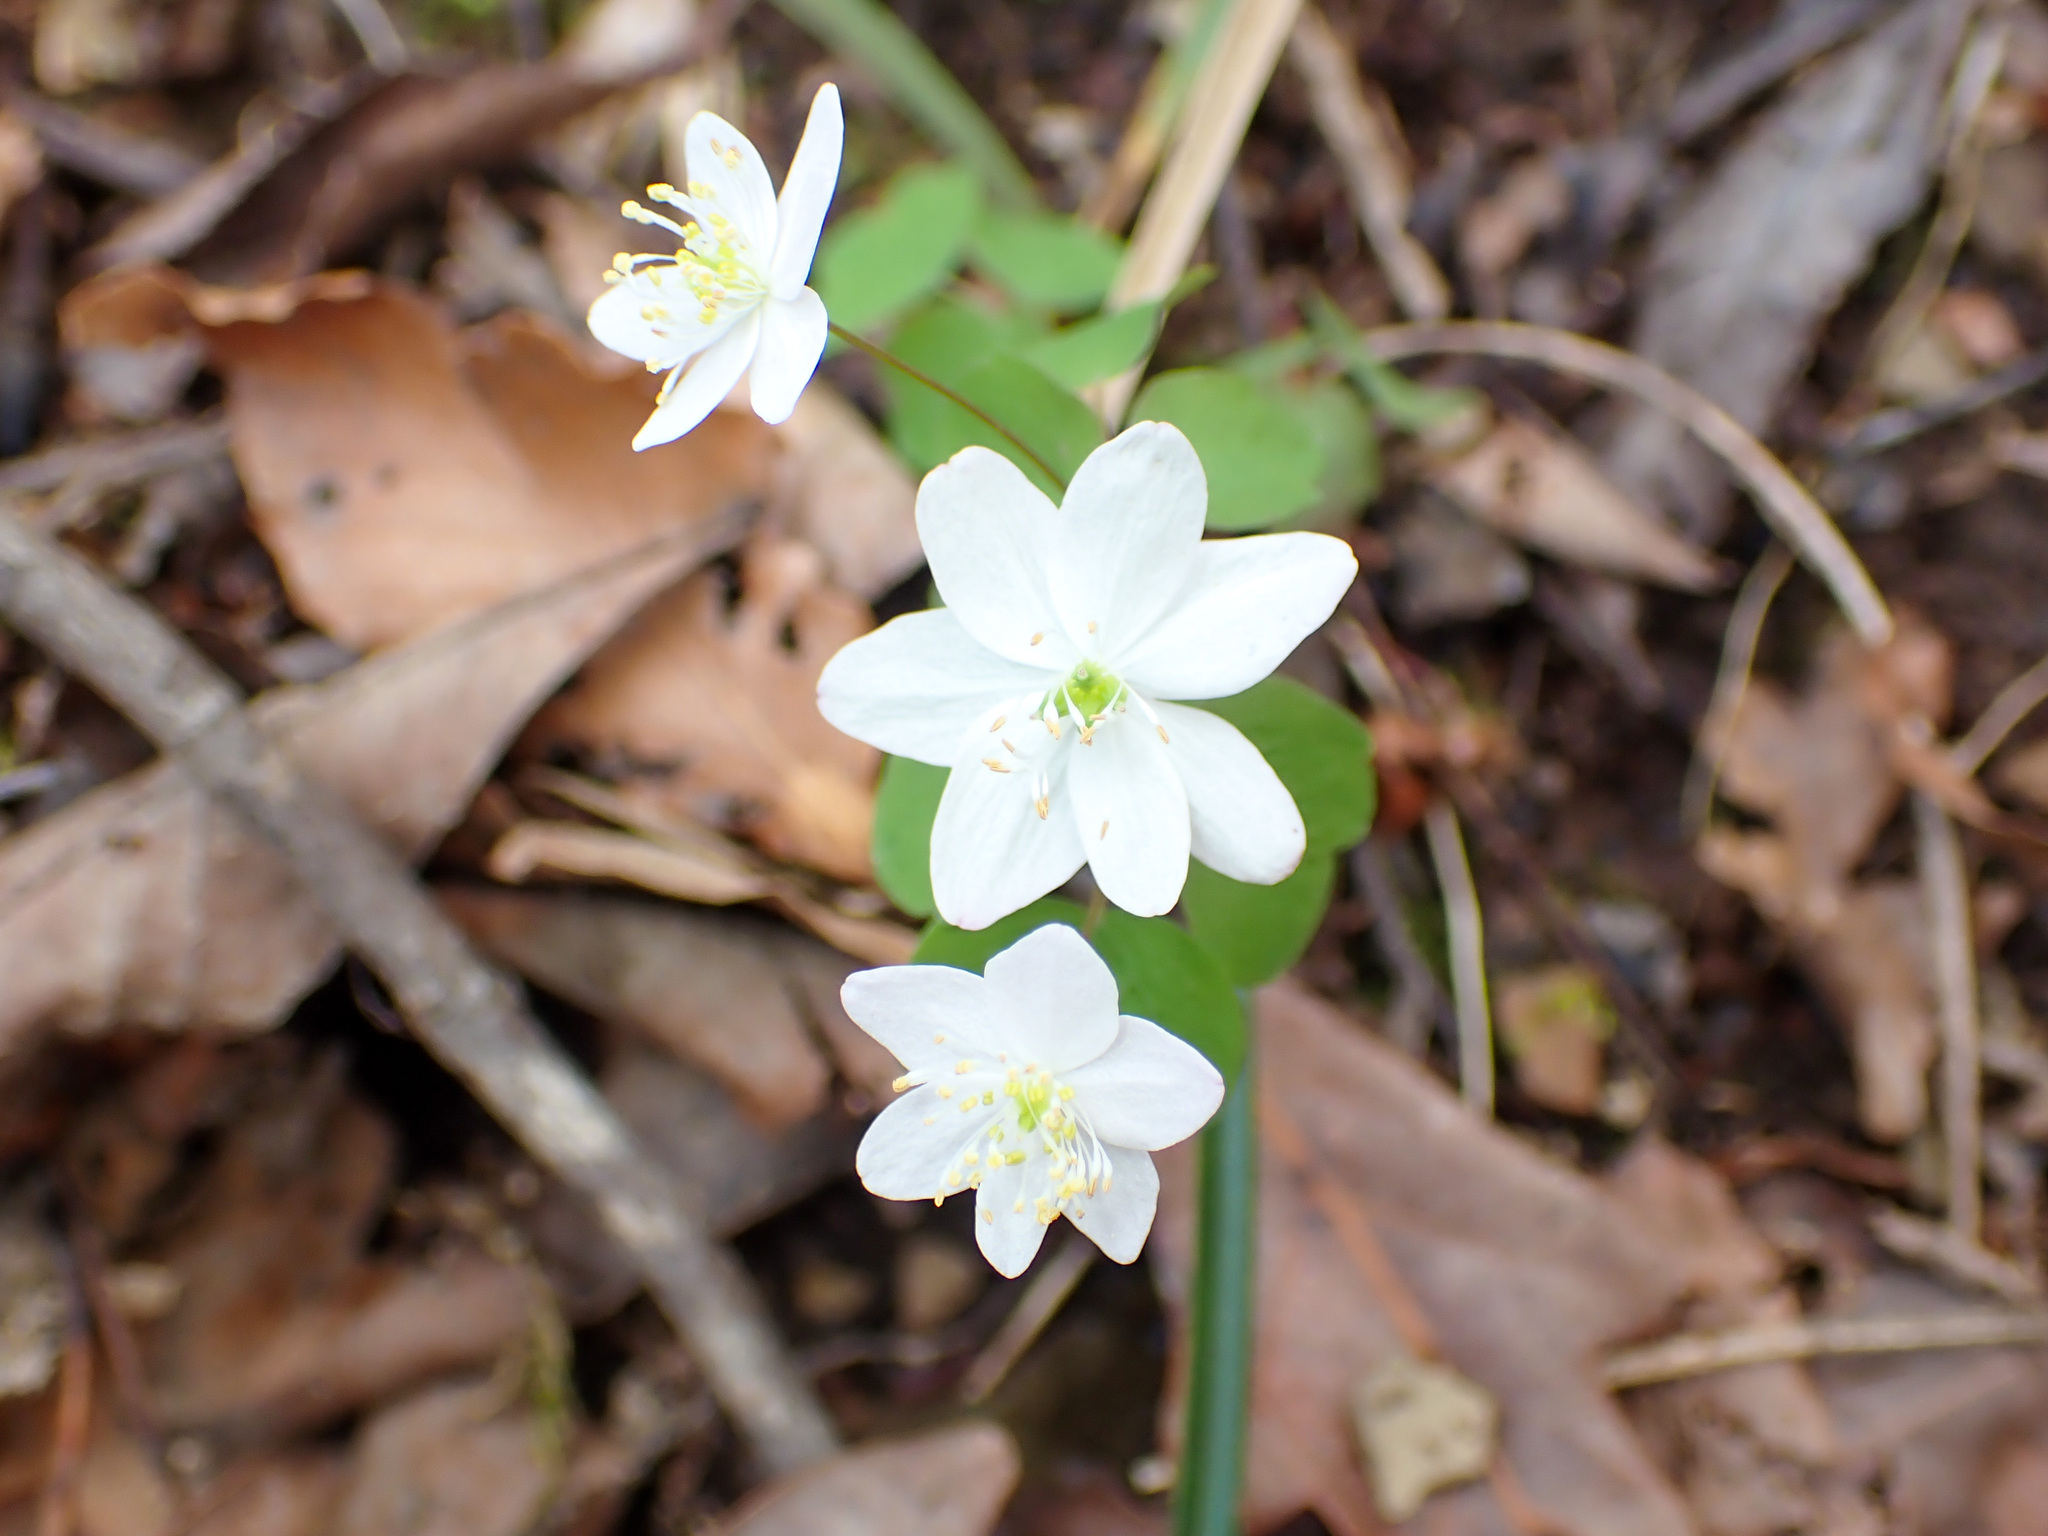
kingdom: Plantae
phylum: Tracheophyta
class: Magnoliopsida
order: Ranunculales
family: Ranunculaceae
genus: Thalictrum
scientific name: Thalictrum thalictroides
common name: Rue-anemone
